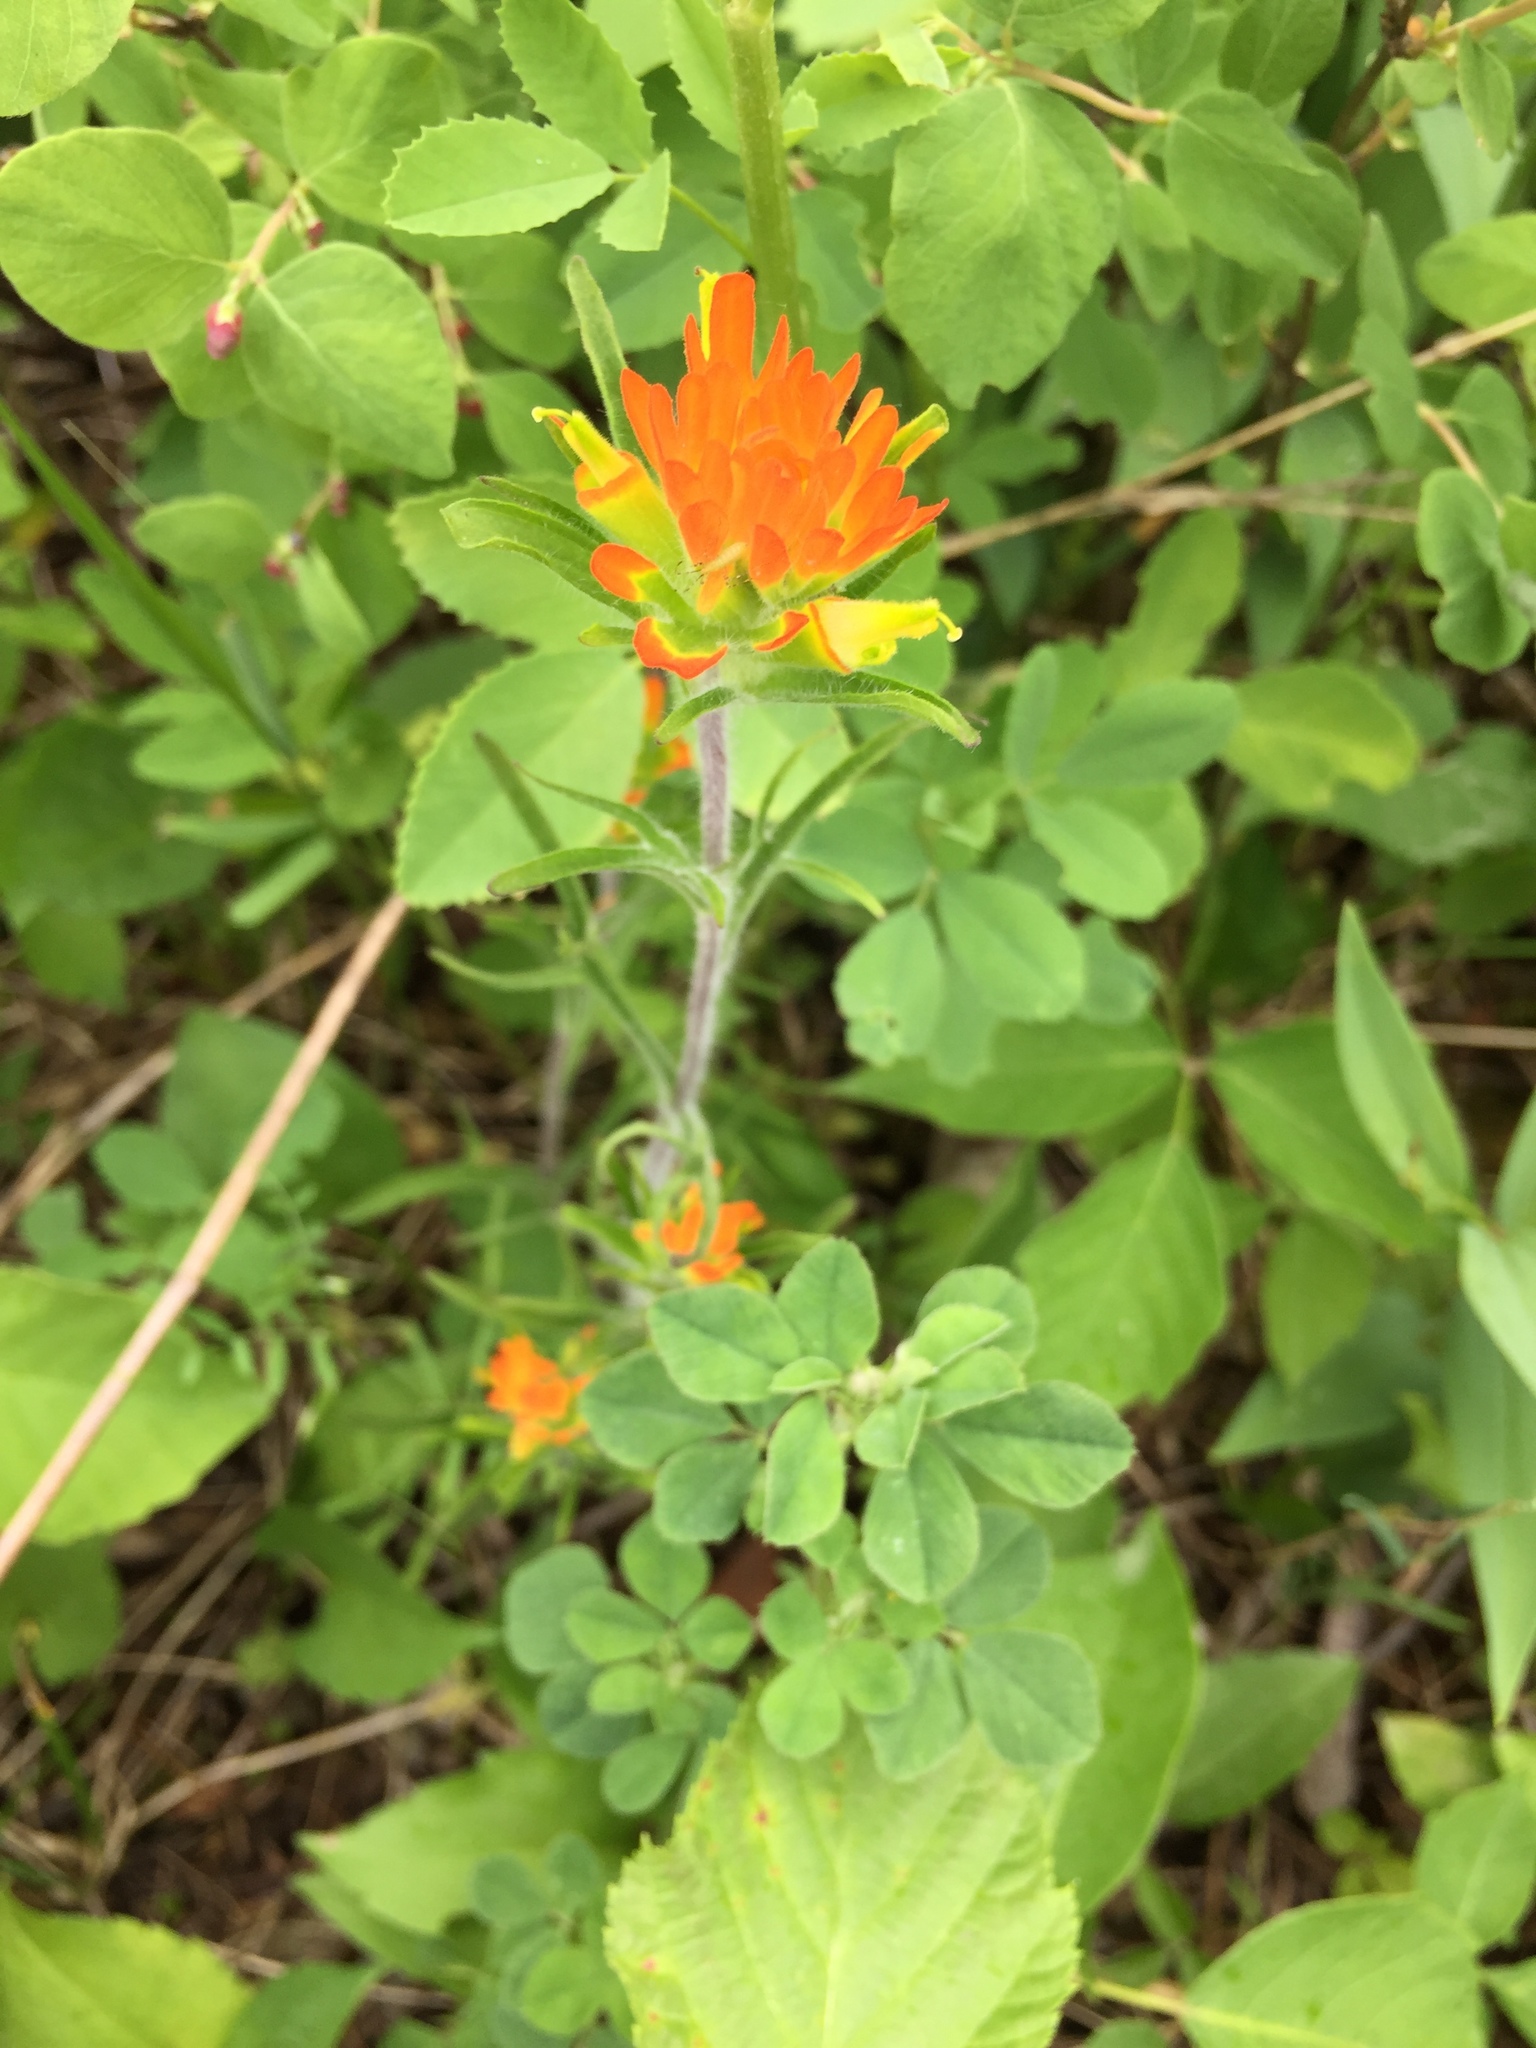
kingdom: Plantae
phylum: Tracheophyta
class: Magnoliopsida
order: Lamiales
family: Orobanchaceae
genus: Castilleja
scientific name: Castilleja coccinea
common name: Scarlet paintbrush
